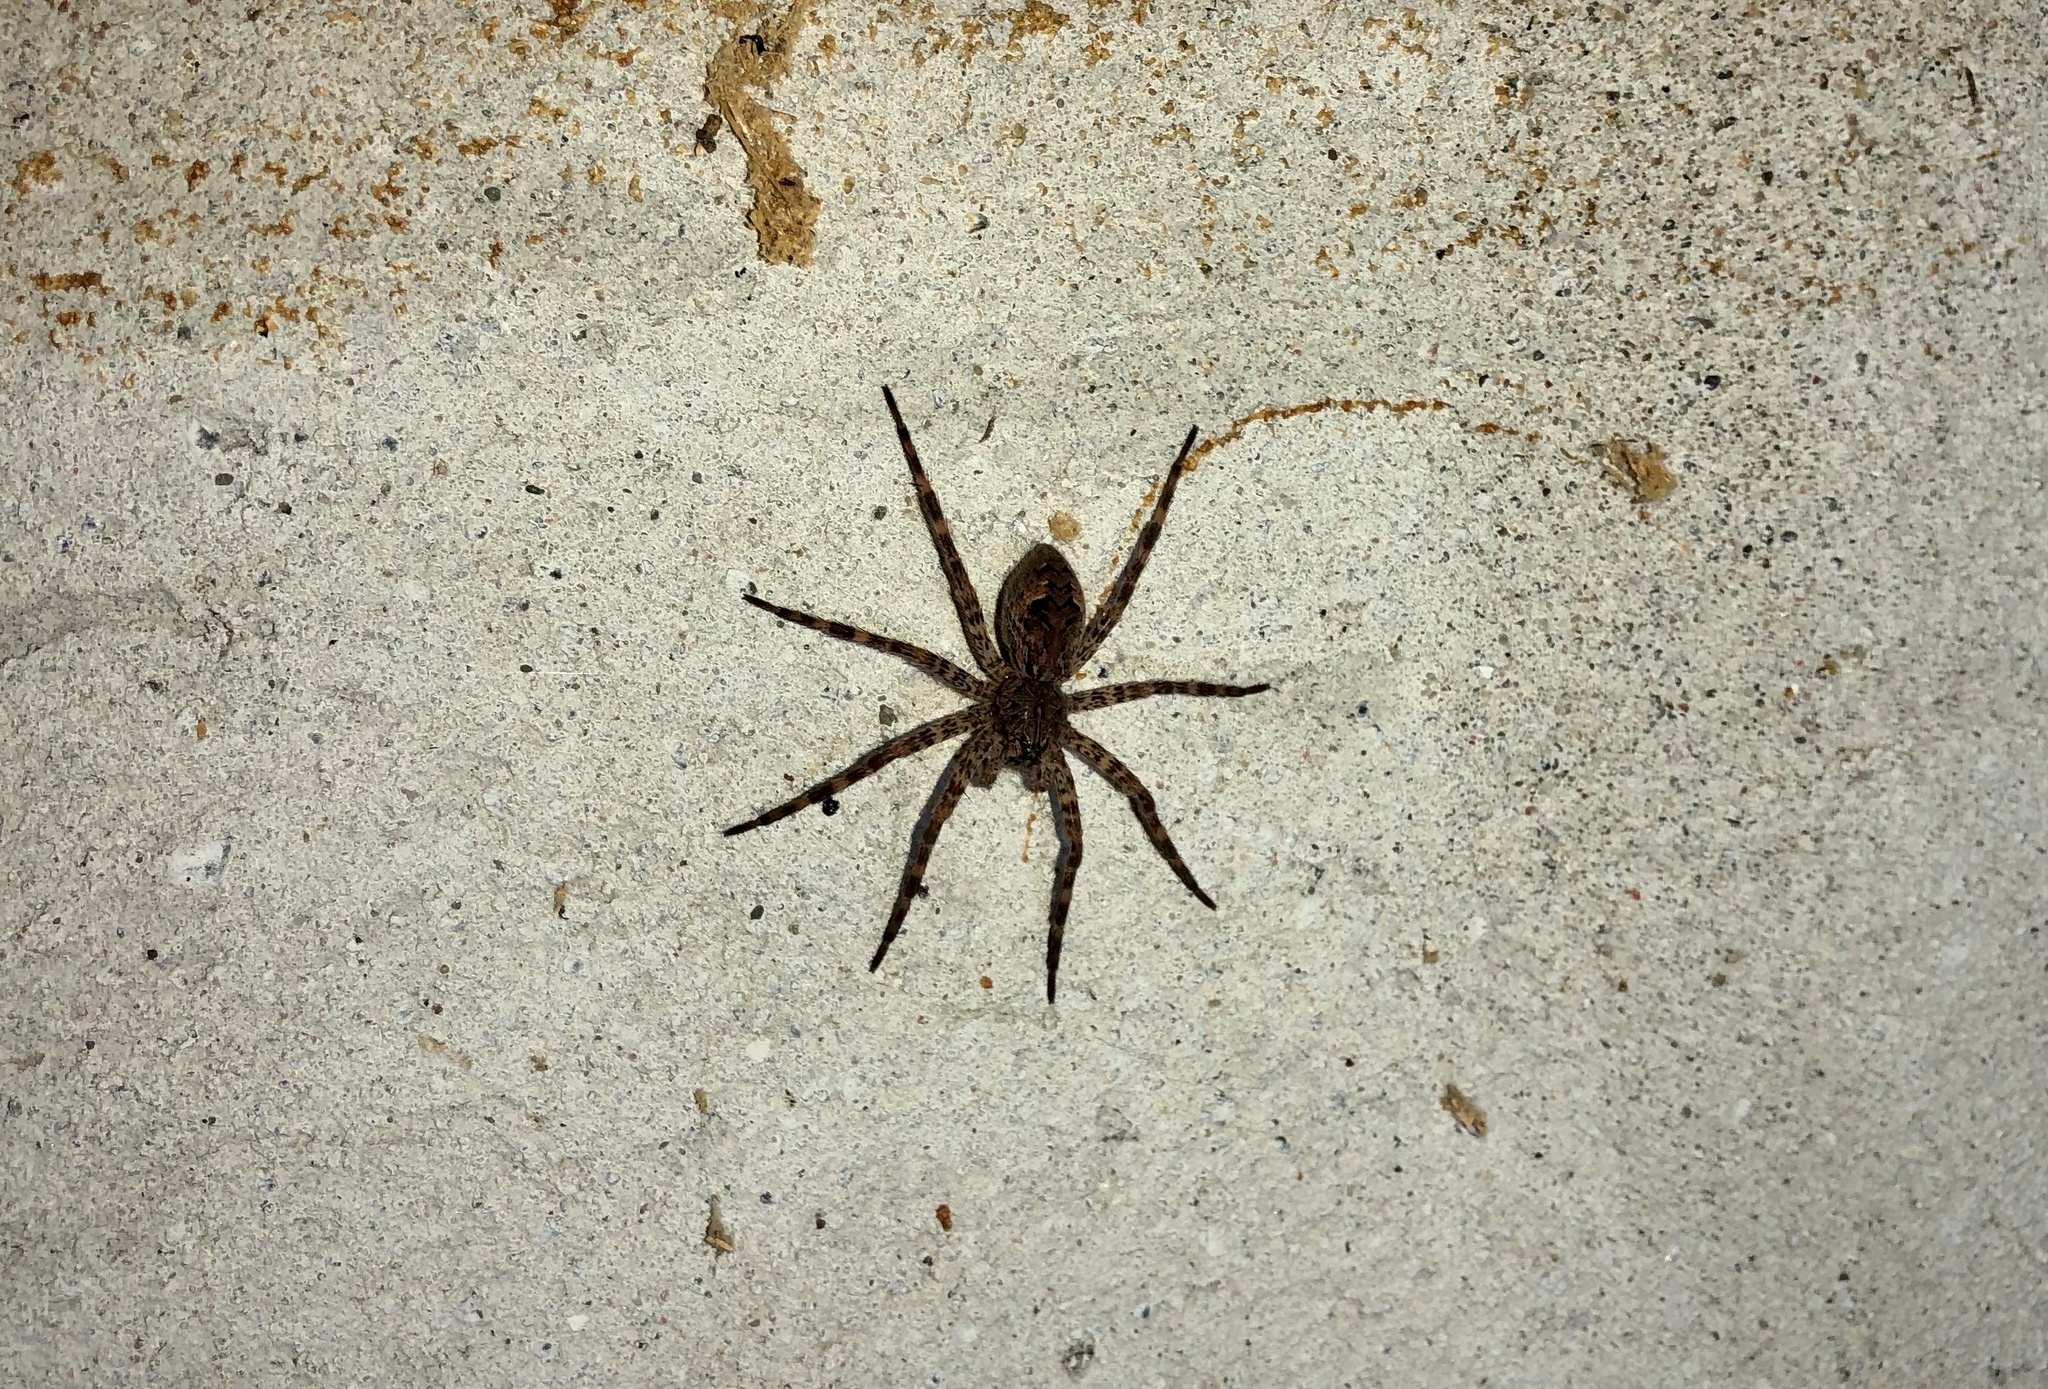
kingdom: Animalia
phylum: Arthropoda
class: Arachnida
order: Araneae
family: Pisauridae
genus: Dolomedes
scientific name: Dolomedes tenebrosus
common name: Dark fishing spider
